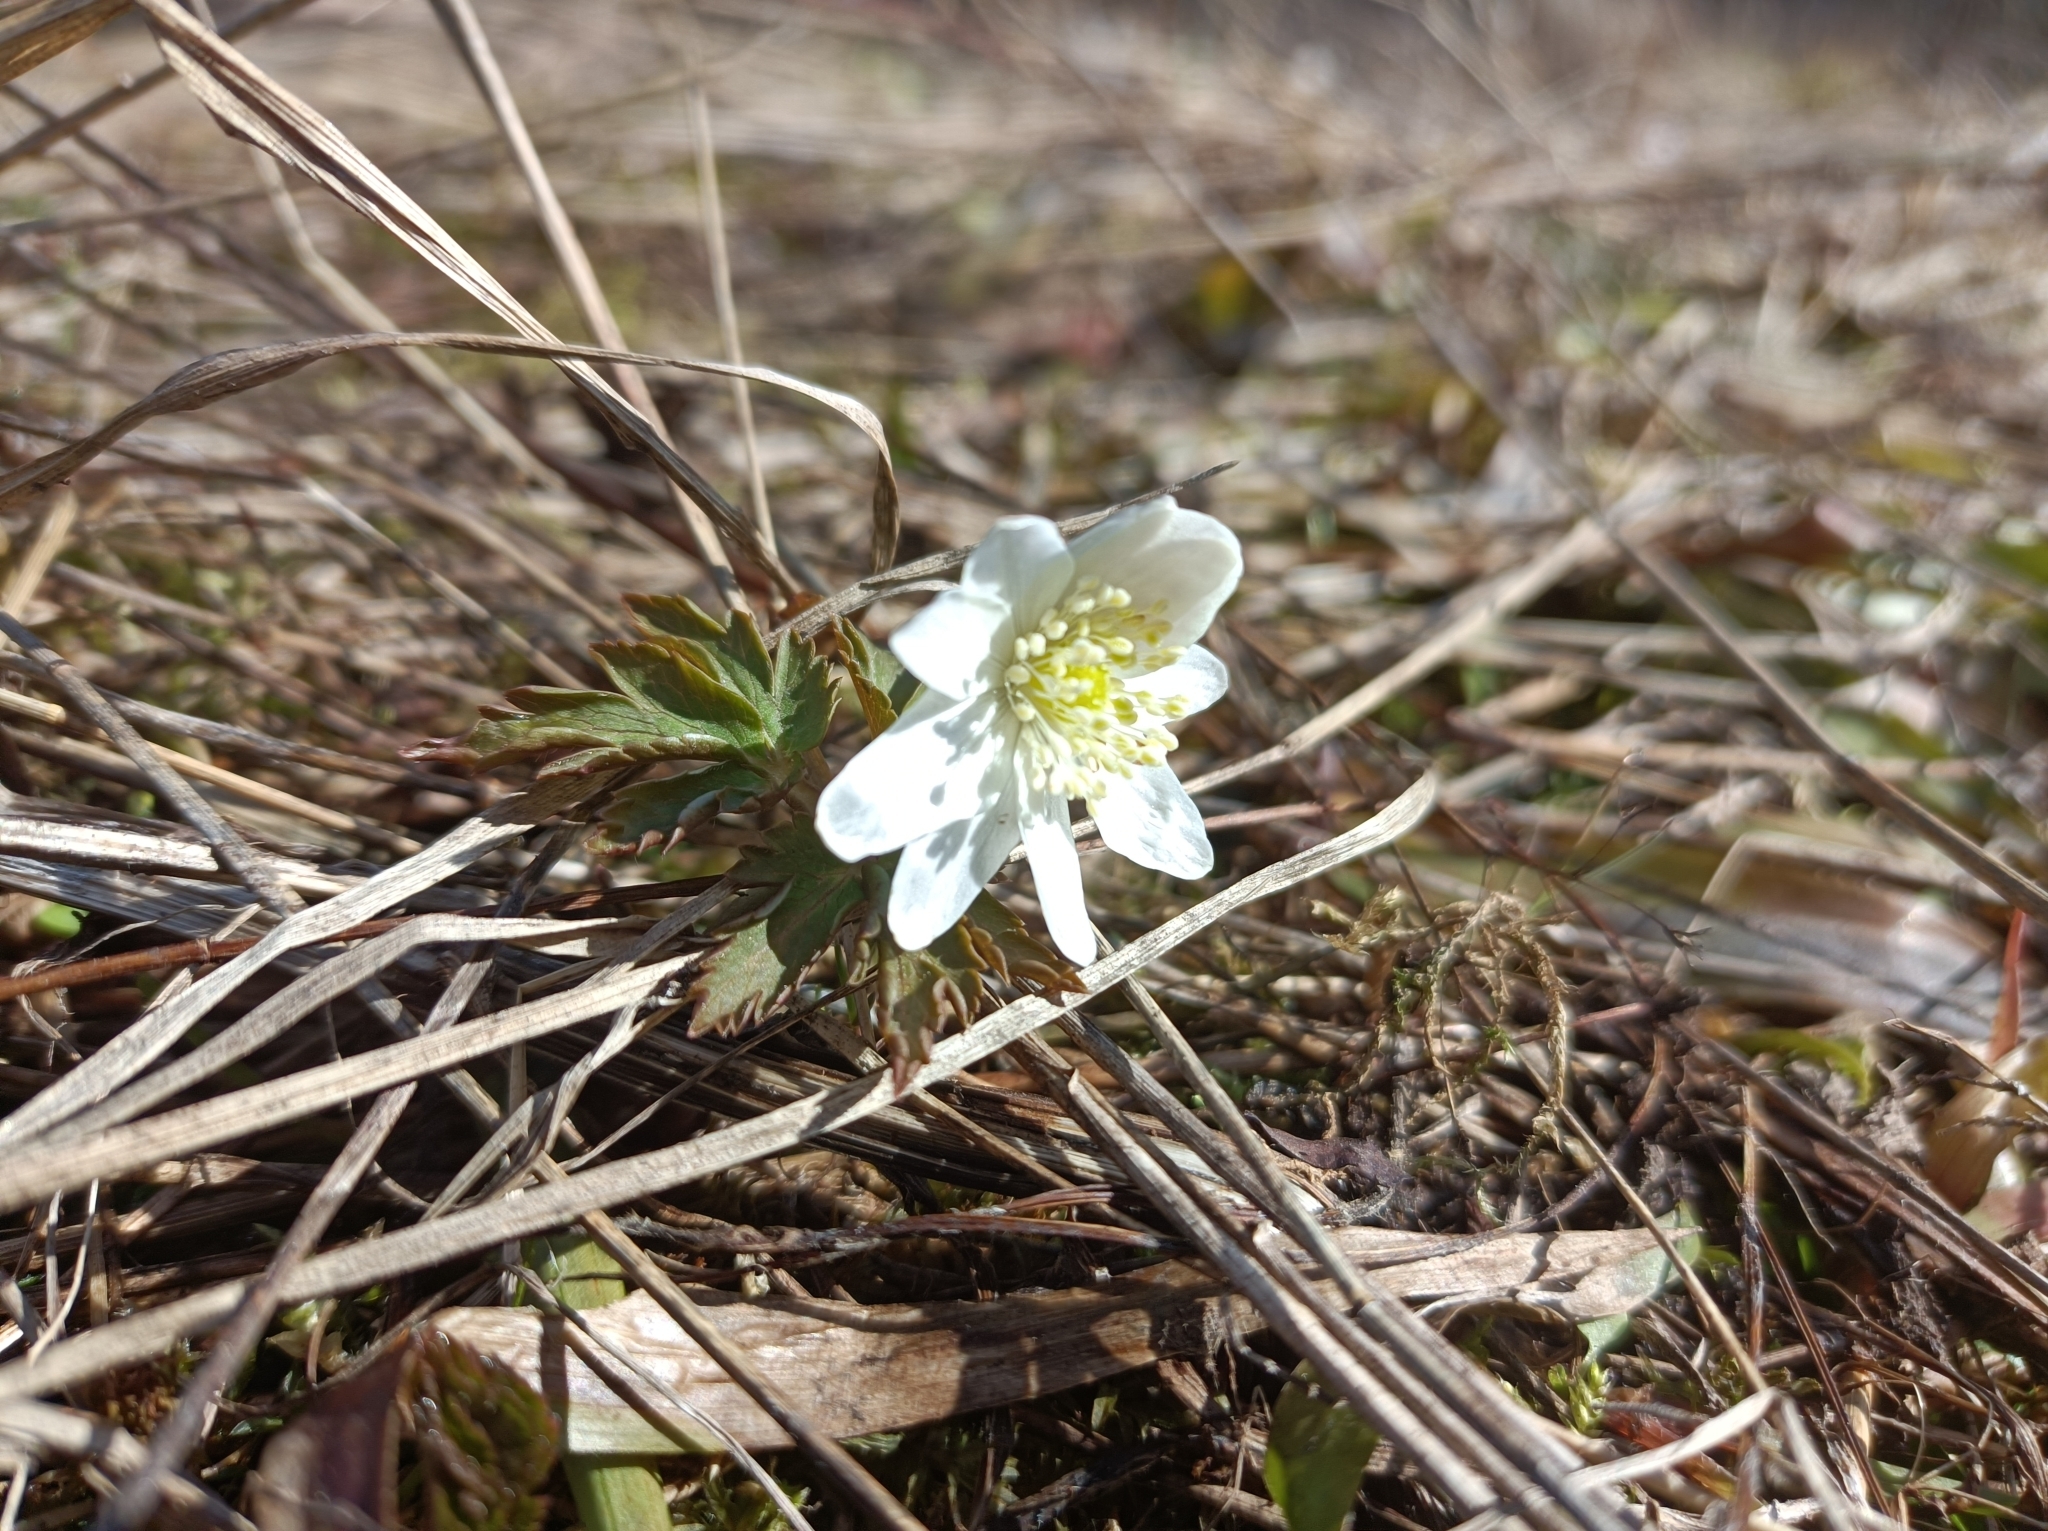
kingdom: Plantae
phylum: Tracheophyta
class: Magnoliopsida
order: Ranunculales
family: Ranunculaceae
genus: Anemone
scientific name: Anemone altaica
